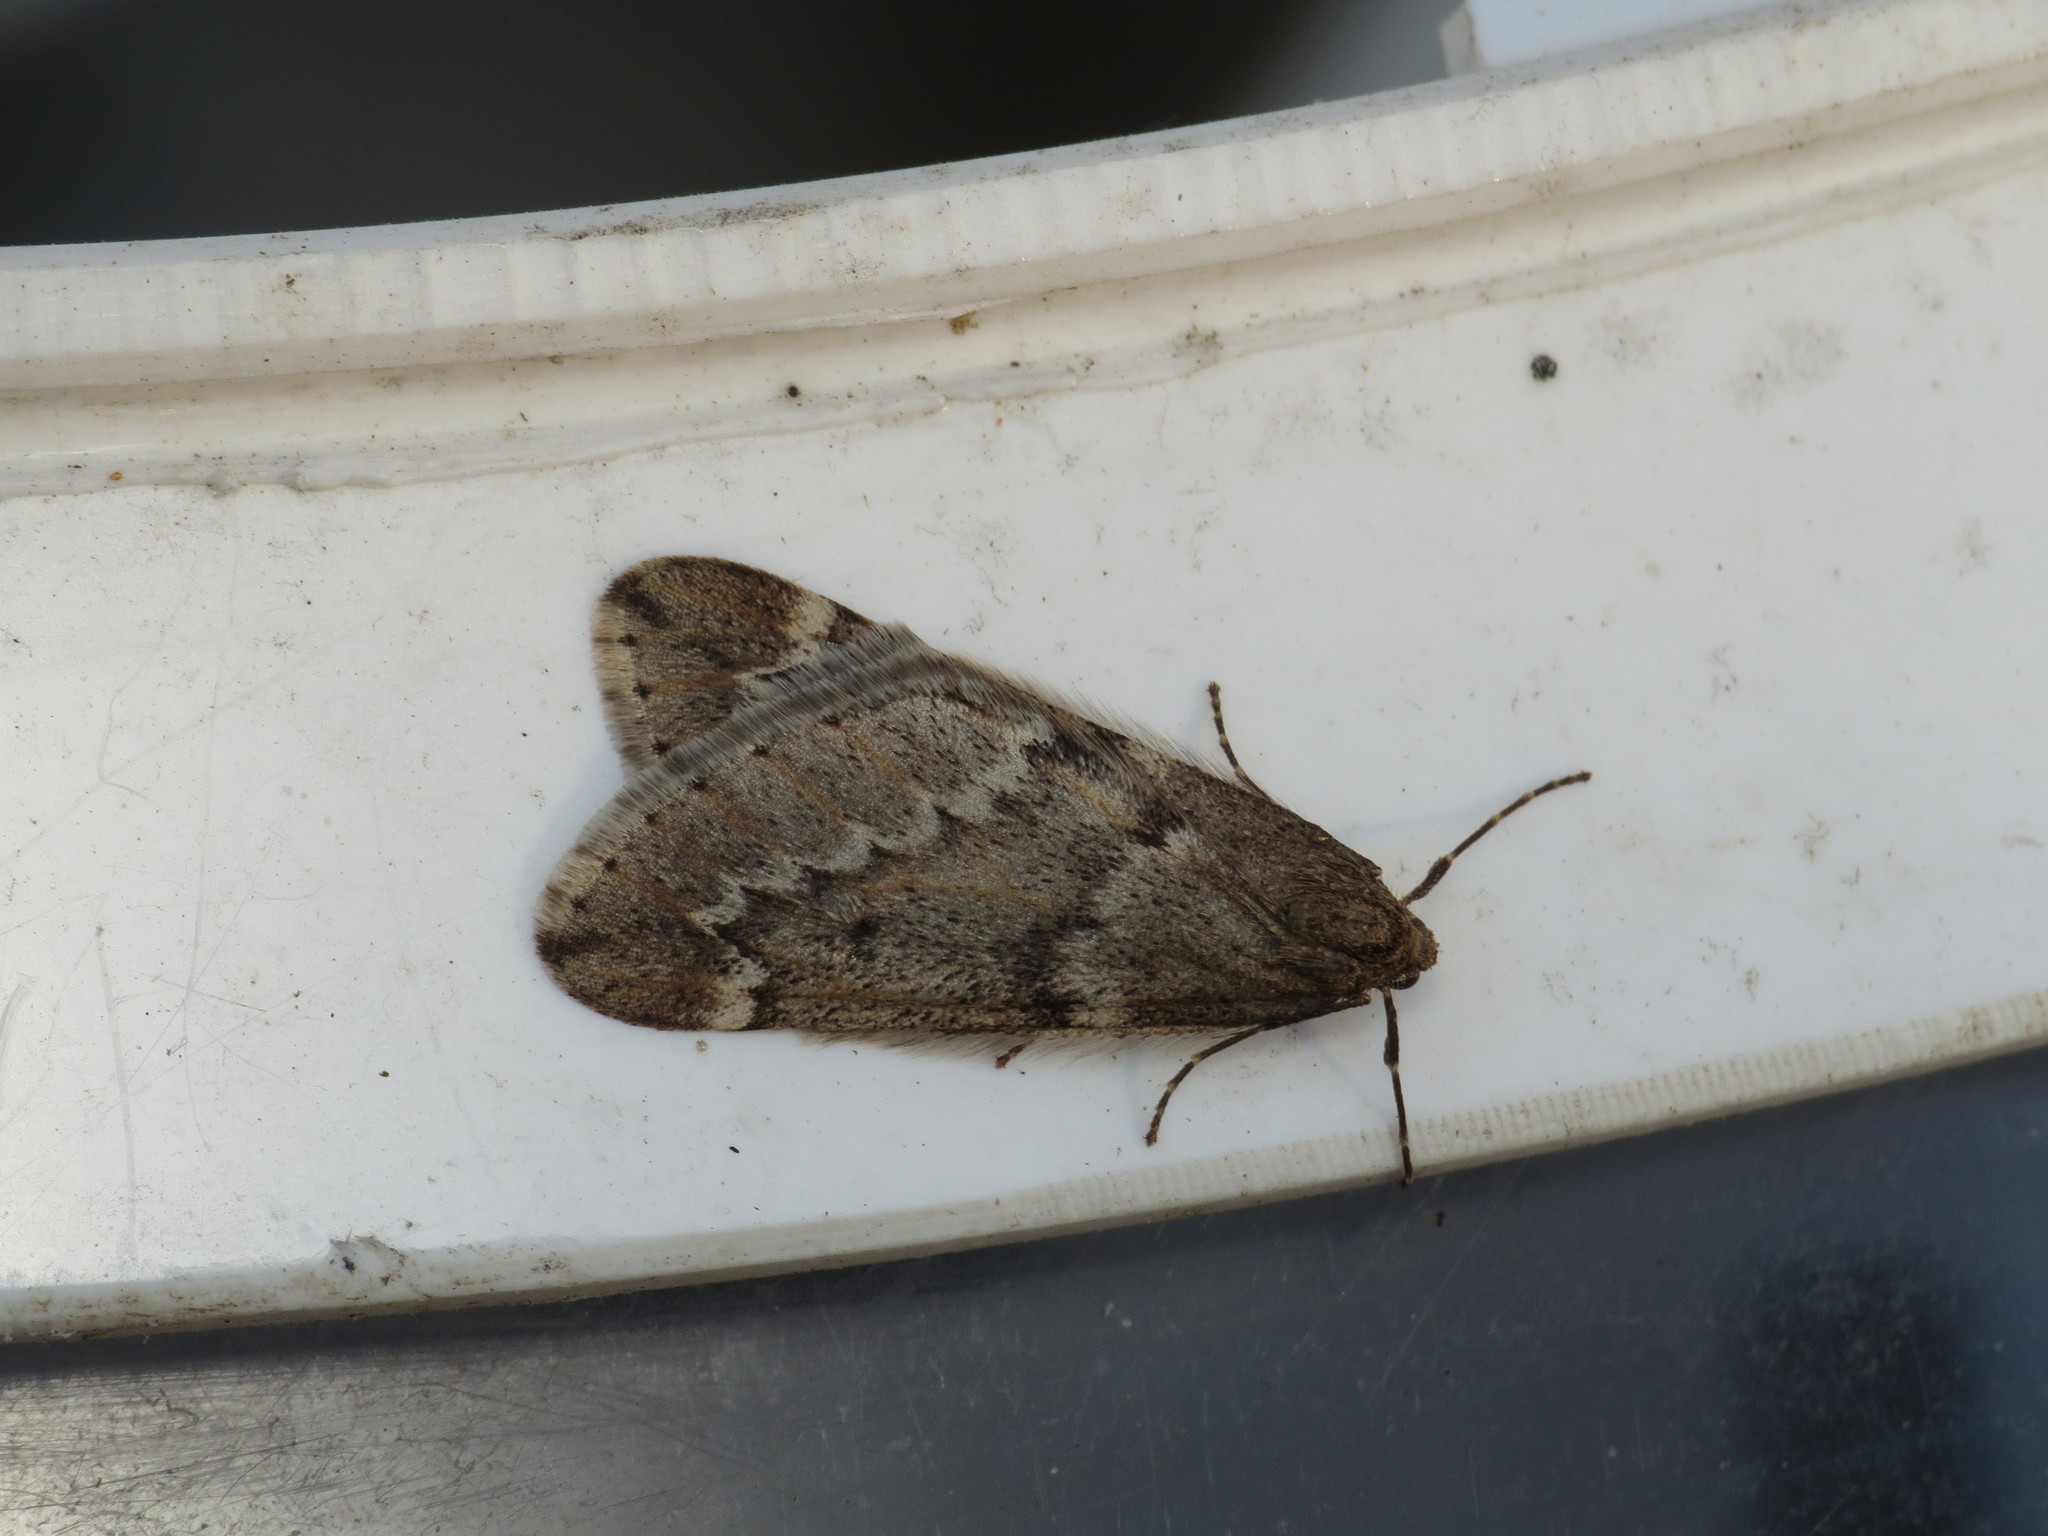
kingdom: Animalia
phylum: Arthropoda
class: Insecta
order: Lepidoptera
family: Geometridae
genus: Alsophila
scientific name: Alsophila aescularia
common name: March moth
